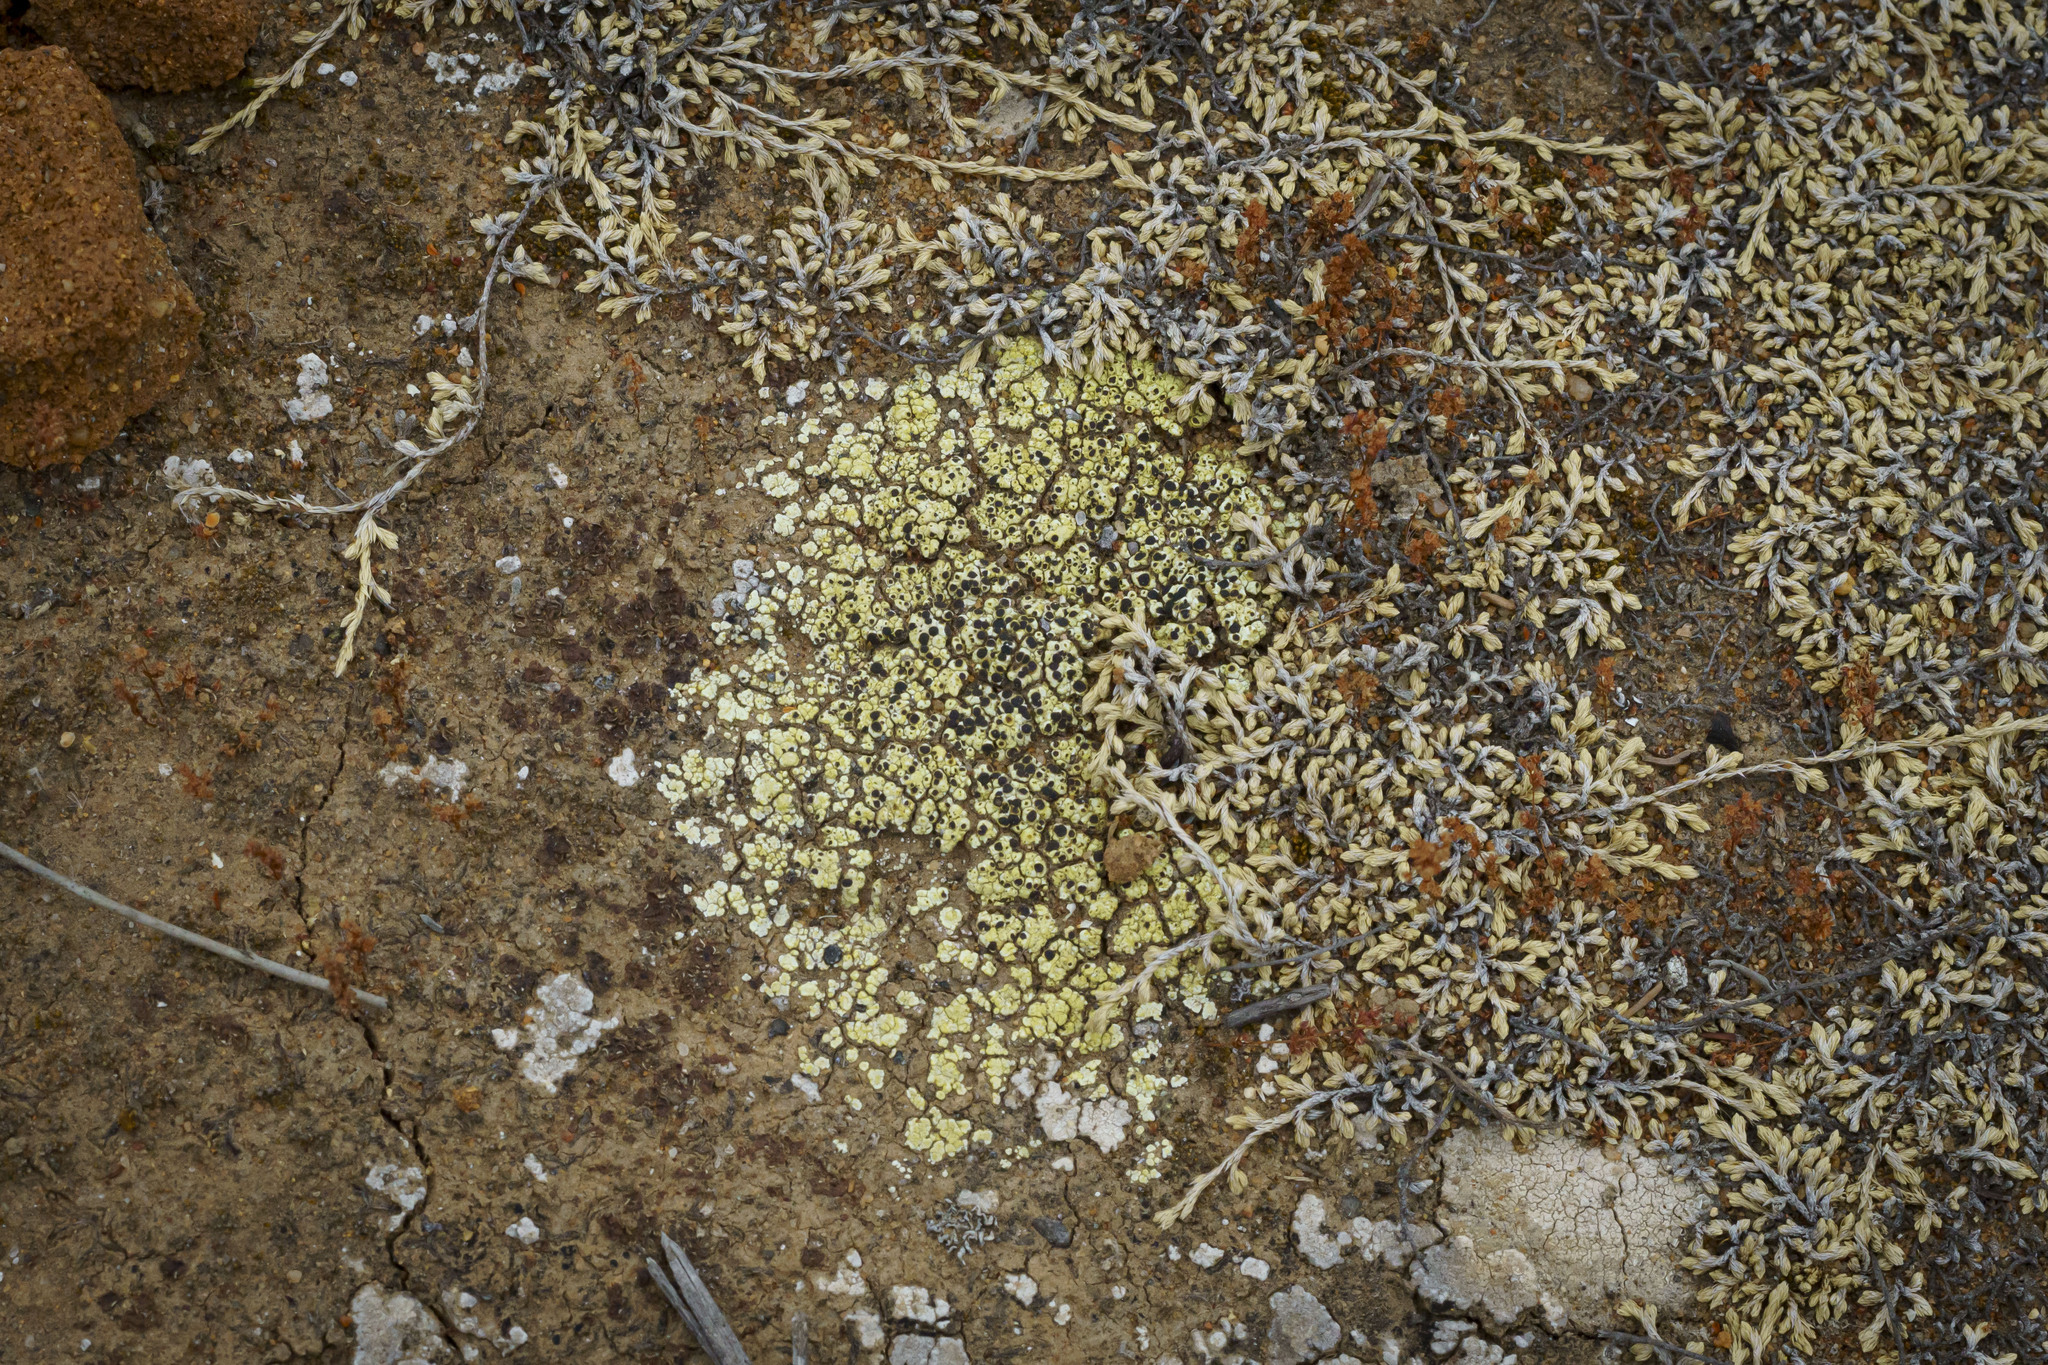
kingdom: Fungi
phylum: Ascomycota
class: Lecanoromycetes
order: Acarosporales
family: Acarosporaceae
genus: Acarospora
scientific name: Acarospora schleicheri
